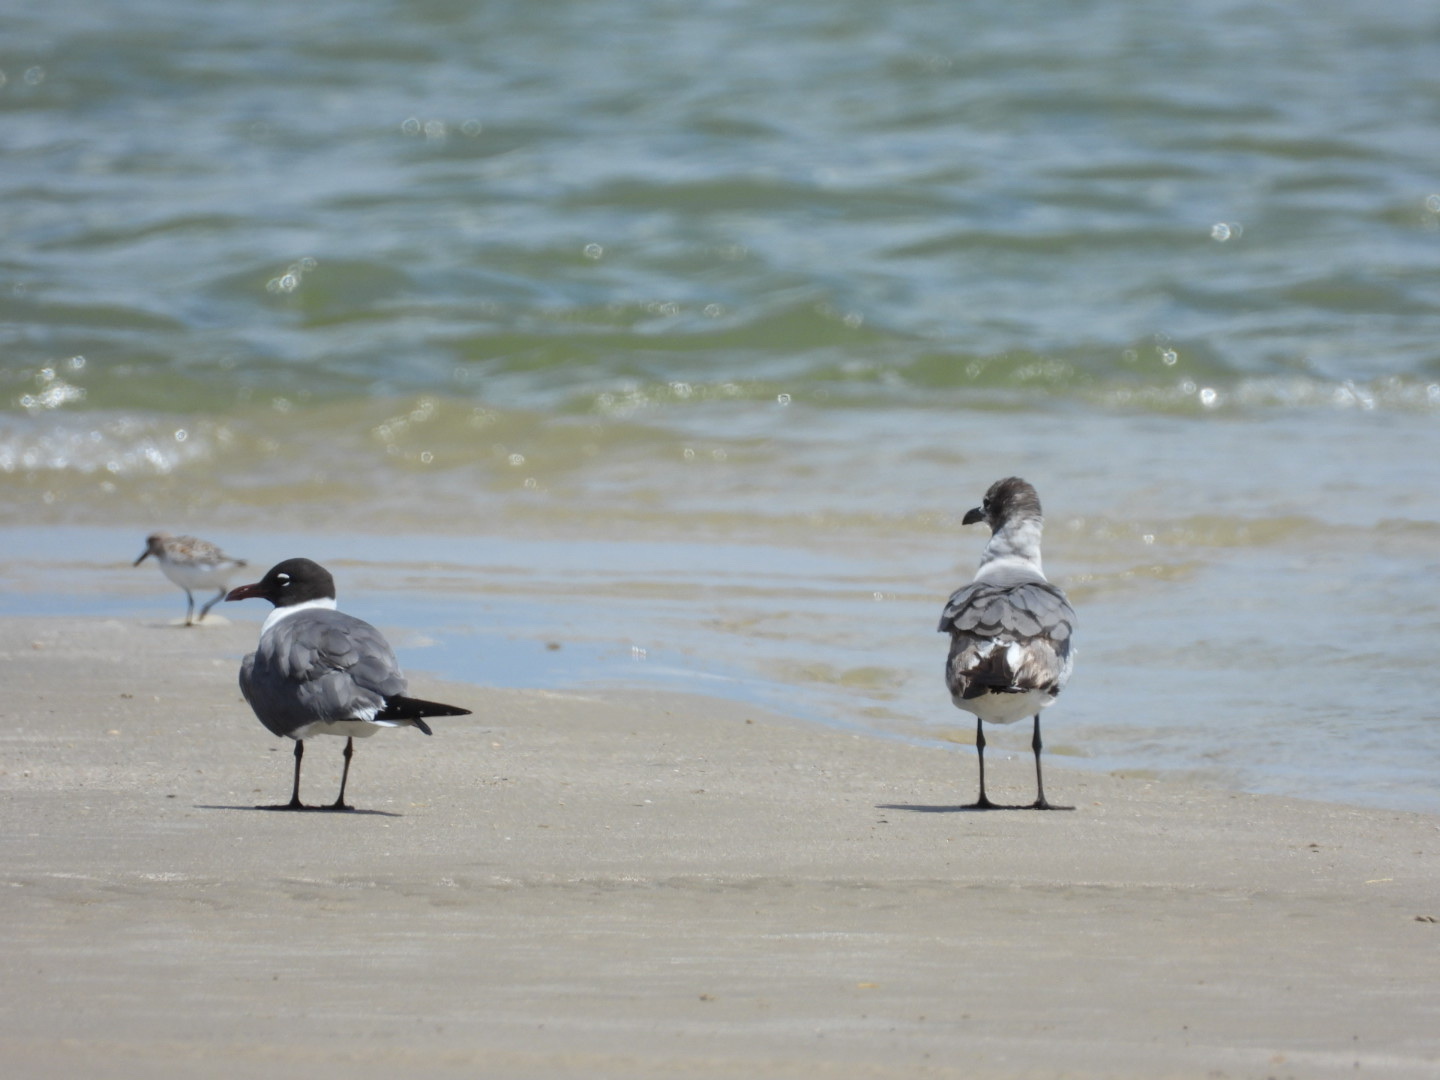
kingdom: Animalia
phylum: Chordata
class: Aves
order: Charadriiformes
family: Laridae
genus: Leucophaeus
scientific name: Leucophaeus atricilla
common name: Laughing gull
